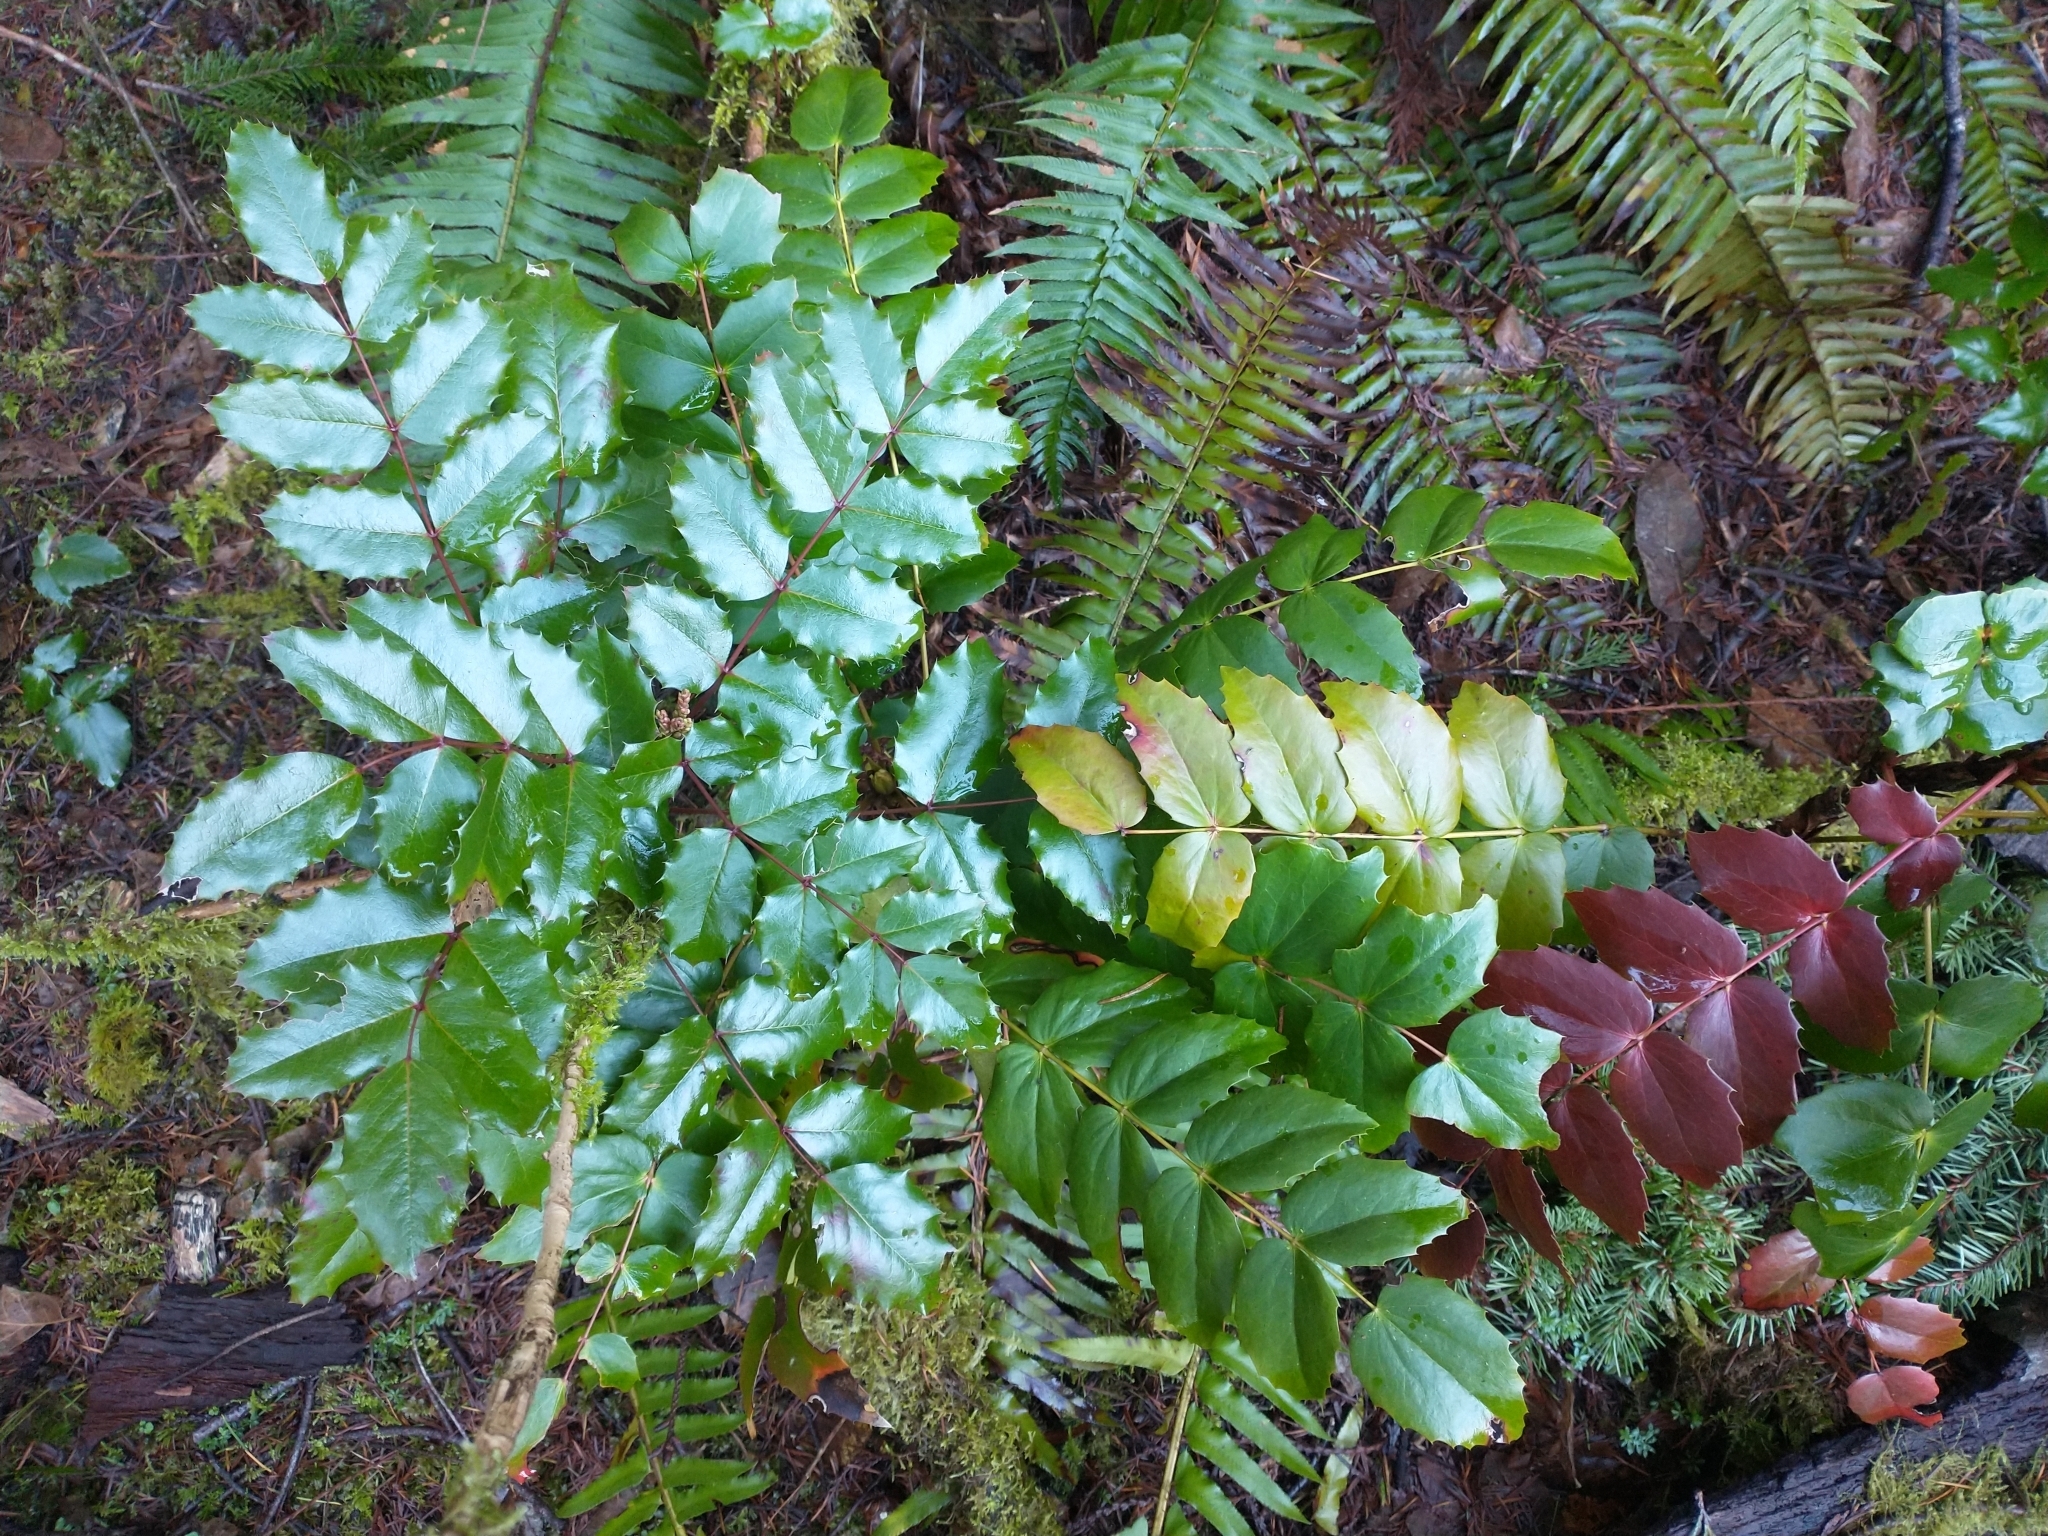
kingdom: Plantae
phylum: Tracheophyta
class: Magnoliopsida
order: Ranunculales
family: Berberidaceae
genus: Mahonia
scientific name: Mahonia aquifolium
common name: Oregon-grape
